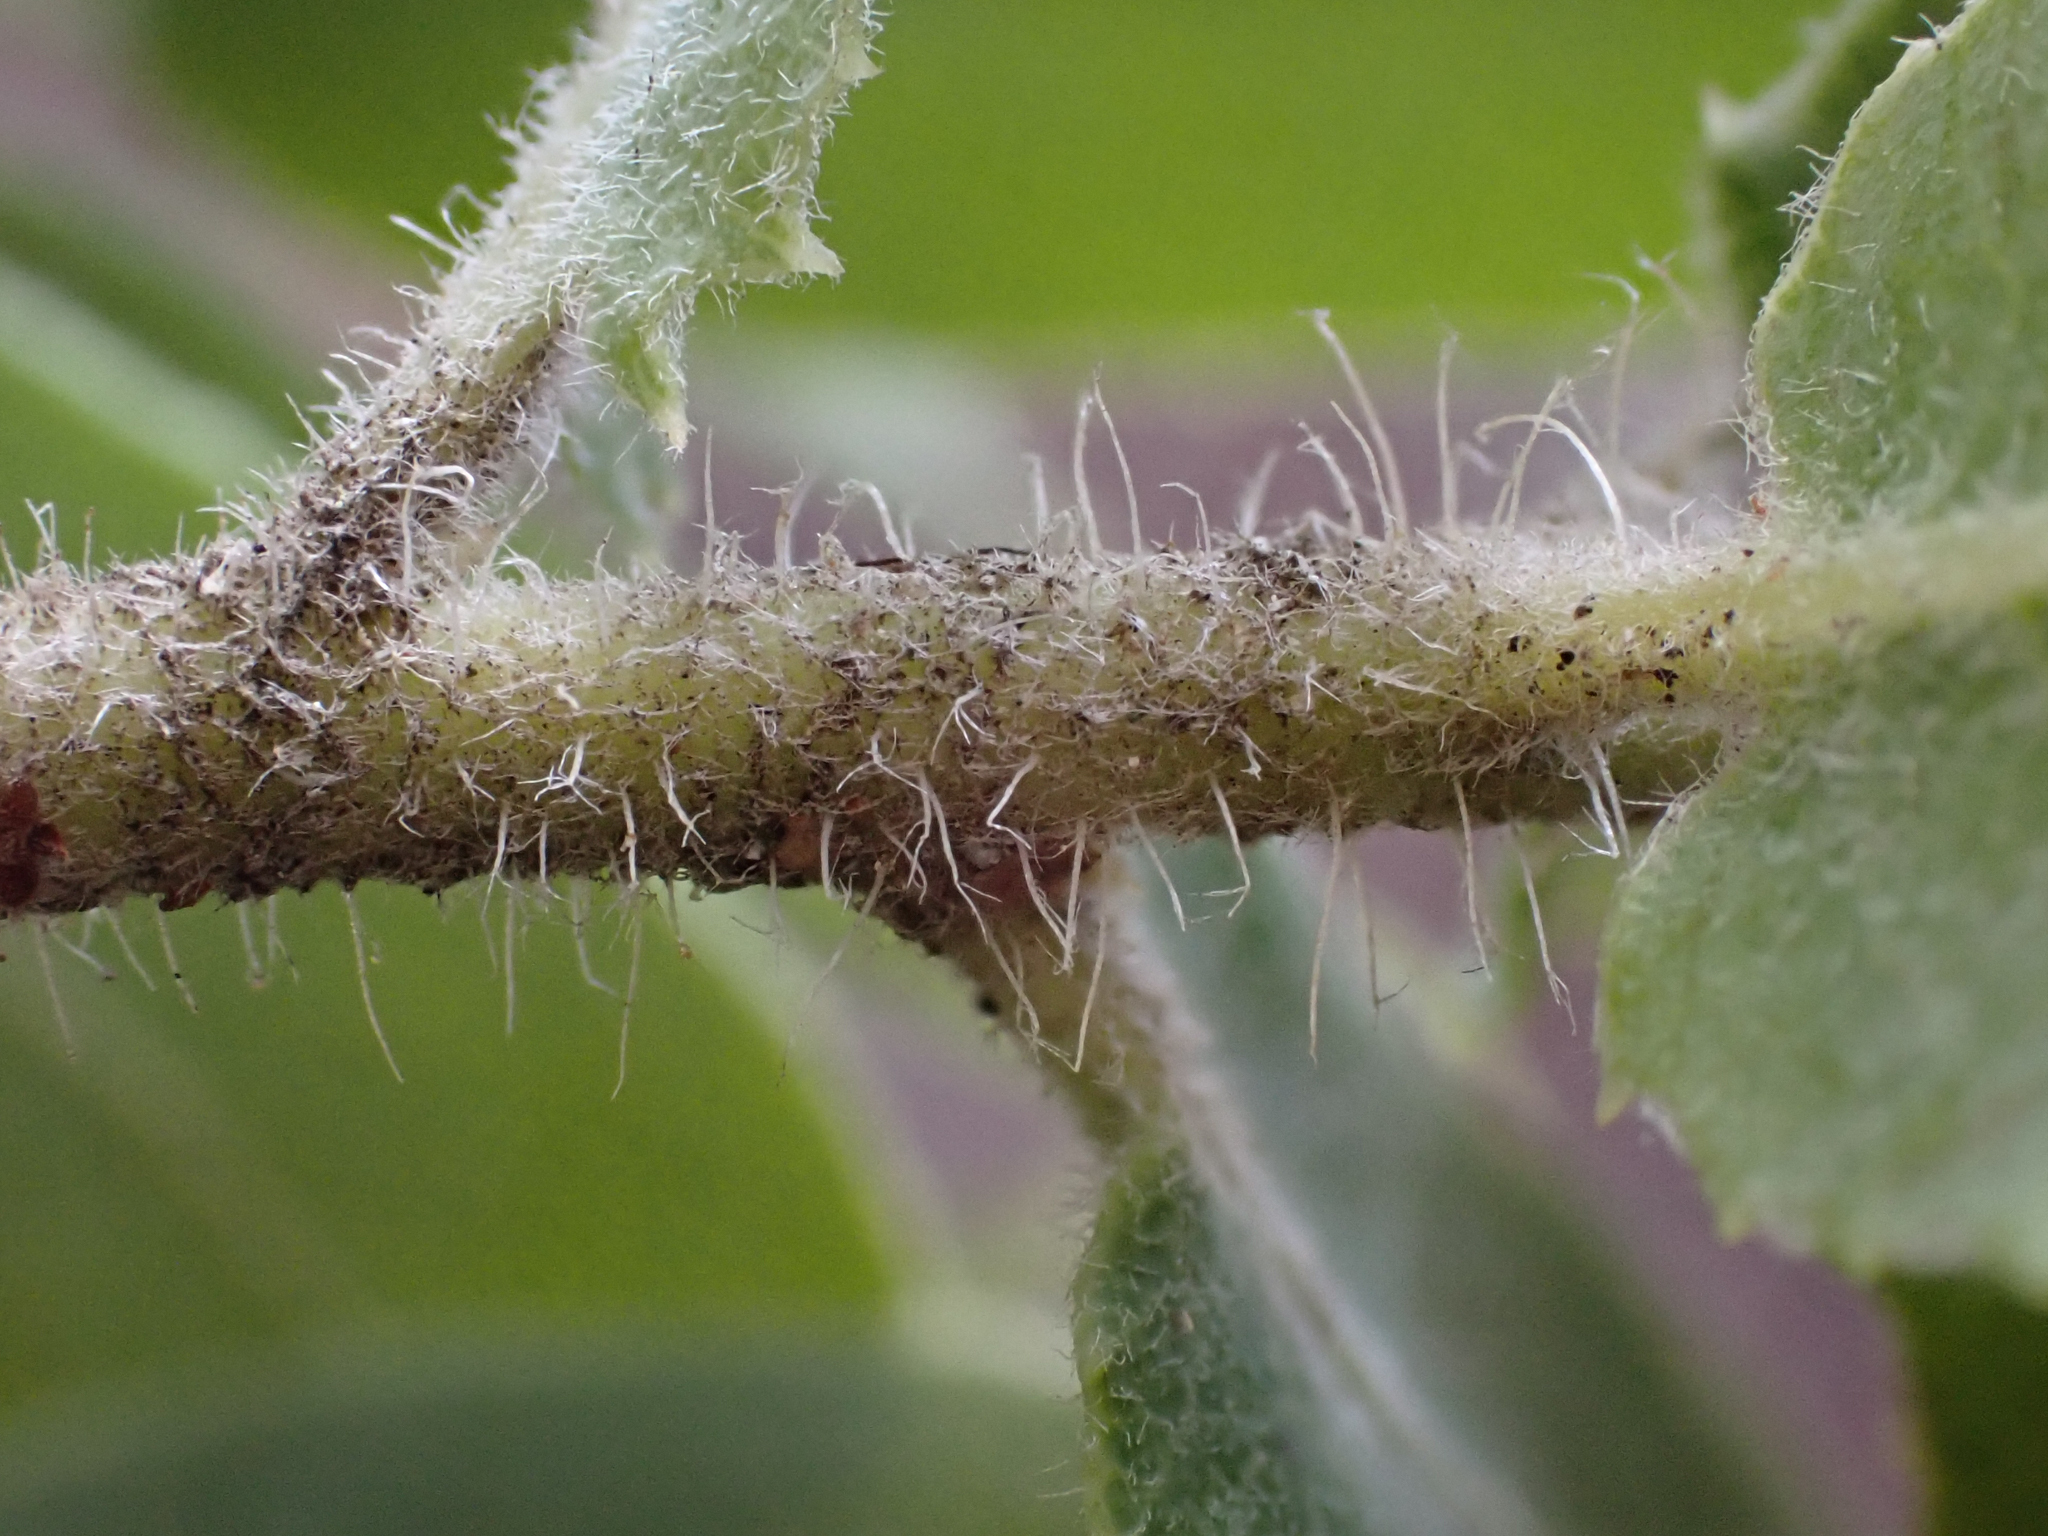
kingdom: Plantae
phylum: Tracheophyta
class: Magnoliopsida
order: Ericales
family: Ericaceae
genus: Arctostaphylos
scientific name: Arctostaphylos andersonii
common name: Santa cruz manzanita
